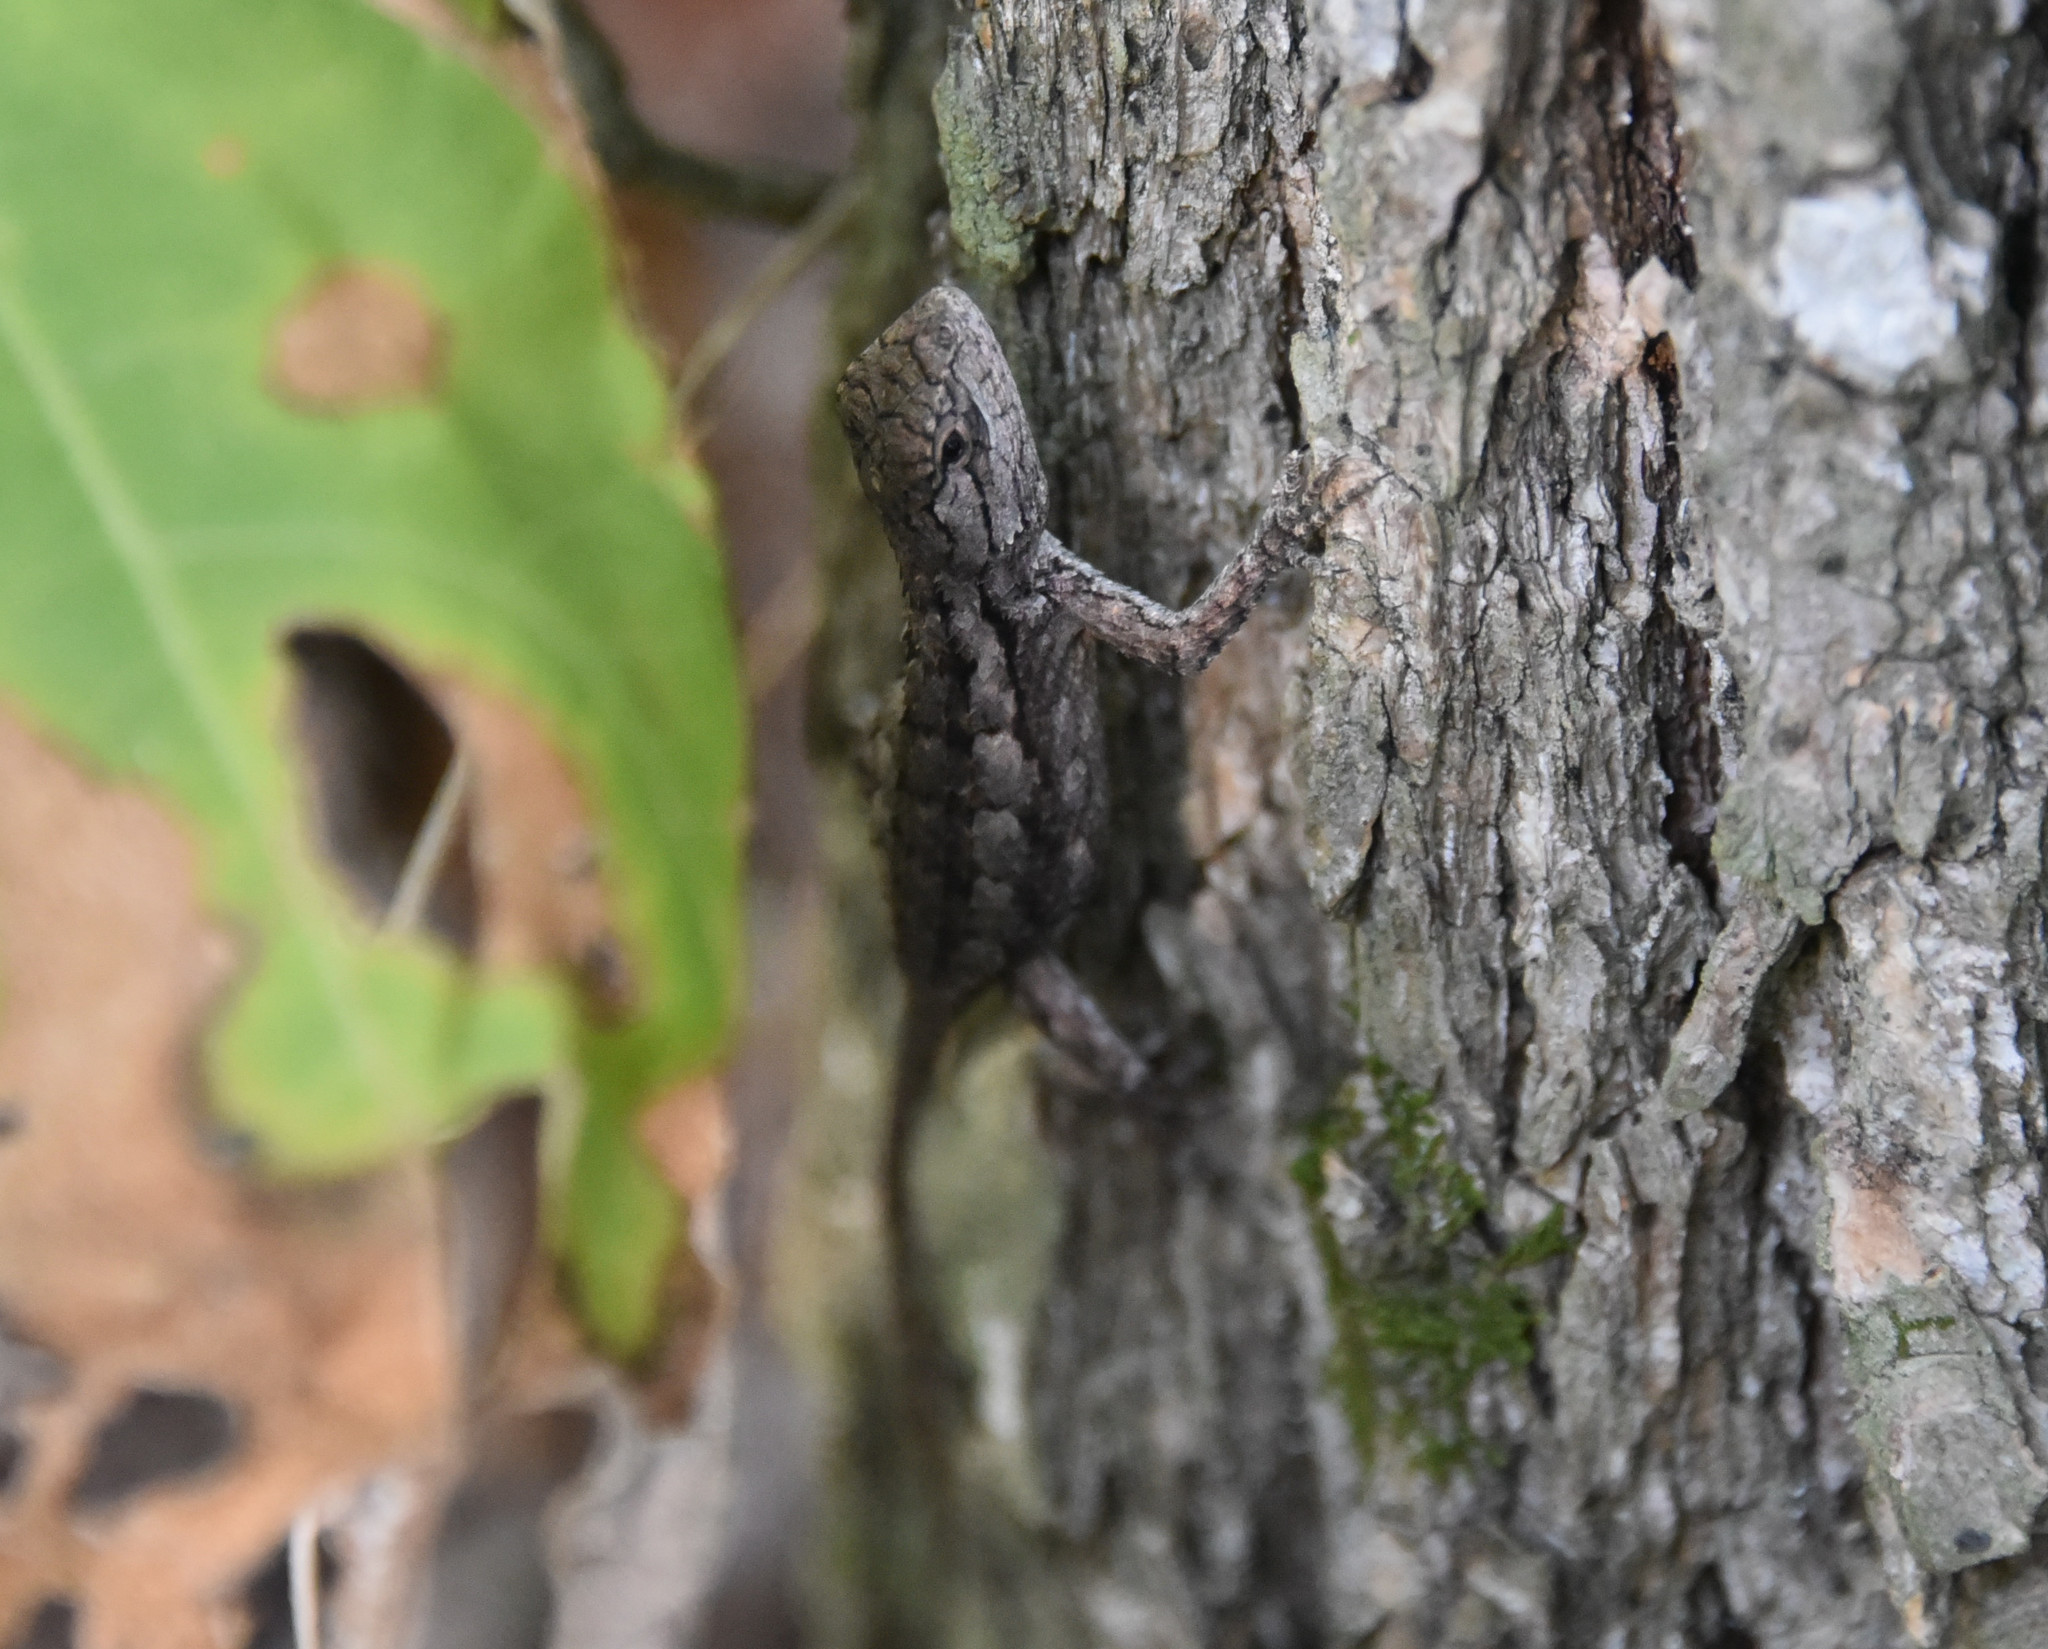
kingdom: Animalia
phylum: Chordata
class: Squamata
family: Phrynosomatidae
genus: Sceloporus
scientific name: Sceloporus olivaceus
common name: Texas spiny lizard
